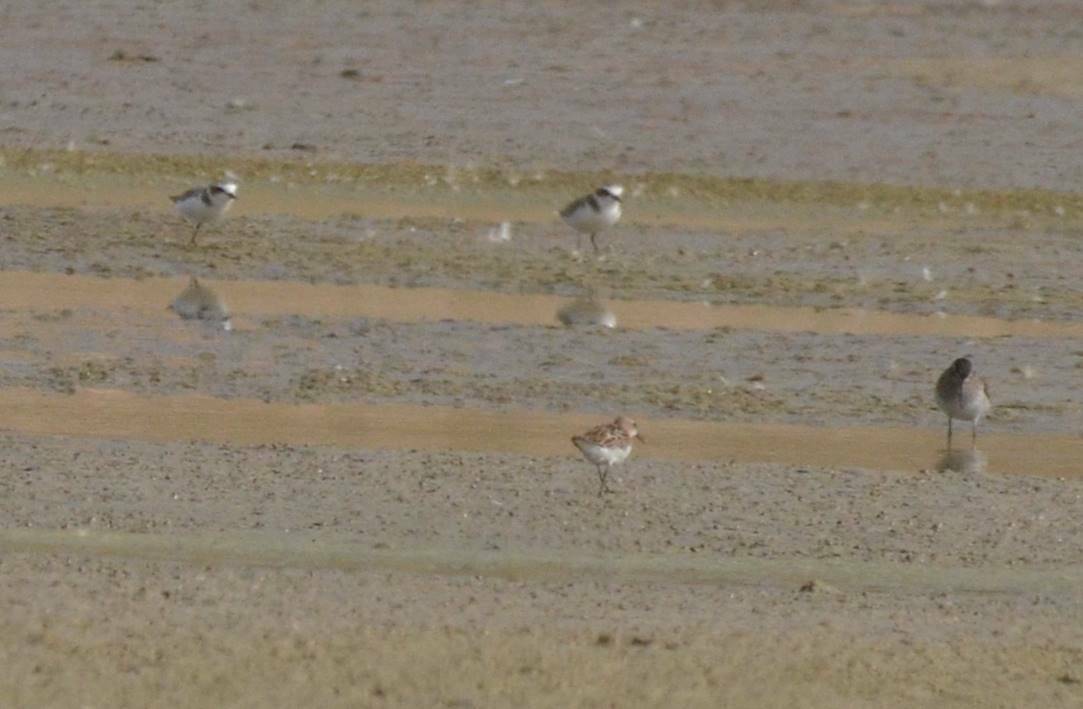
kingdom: Animalia
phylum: Chordata
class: Aves
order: Charadriiformes
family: Charadriidae
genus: Charadrius
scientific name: Charadrius alexandrinus
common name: Kentish plover
